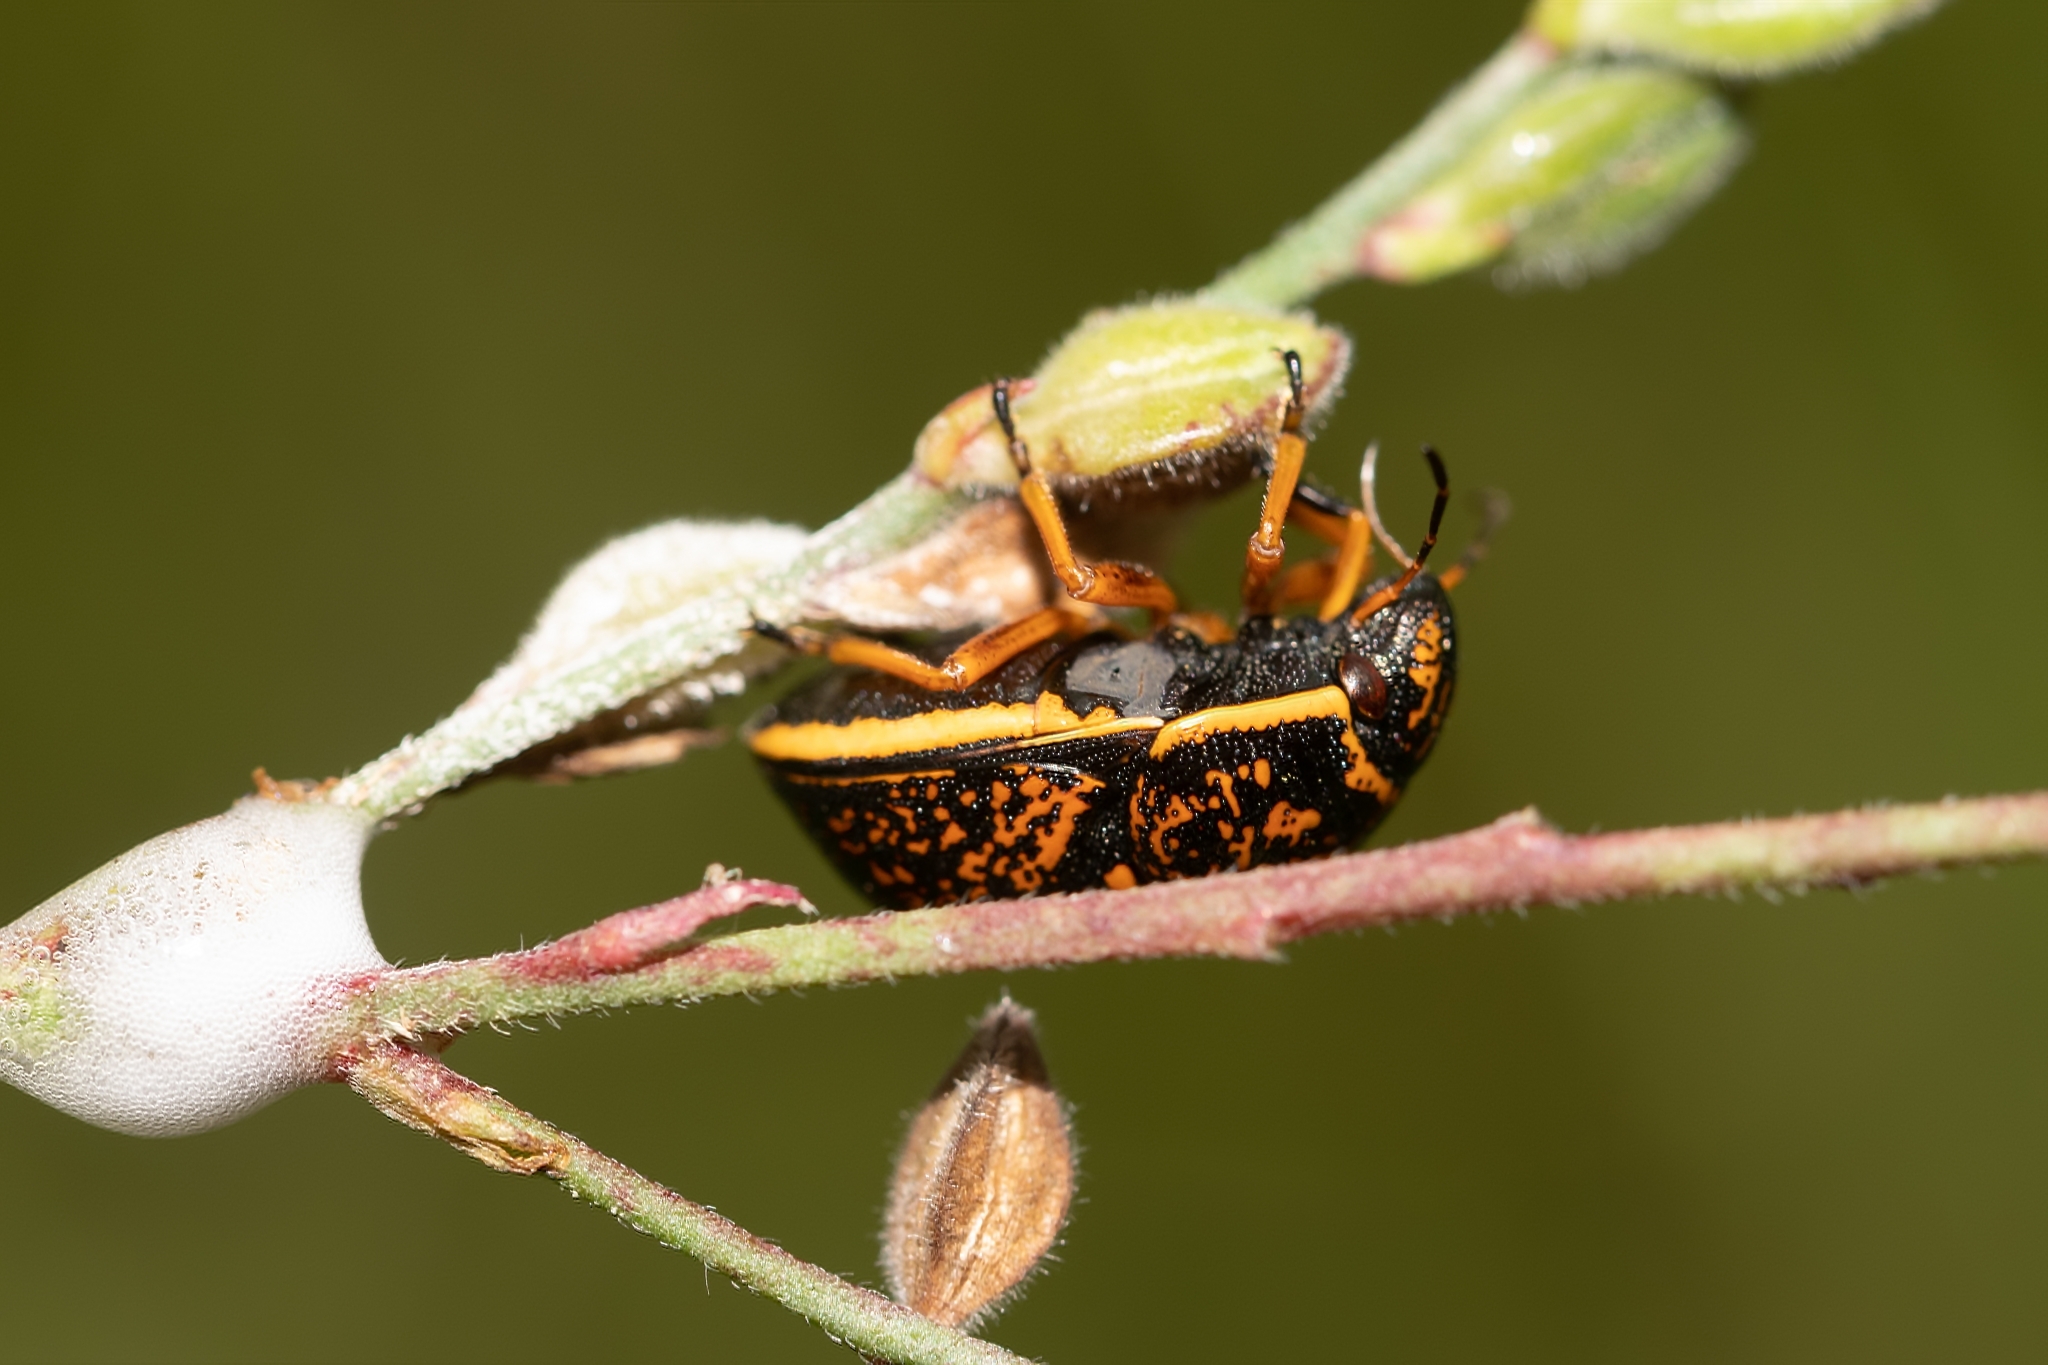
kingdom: Animalia
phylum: Arthropoda
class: Insecta
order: Hemiptera
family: Scutelleridae
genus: Orsilochides
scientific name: Orsilochides guttata
